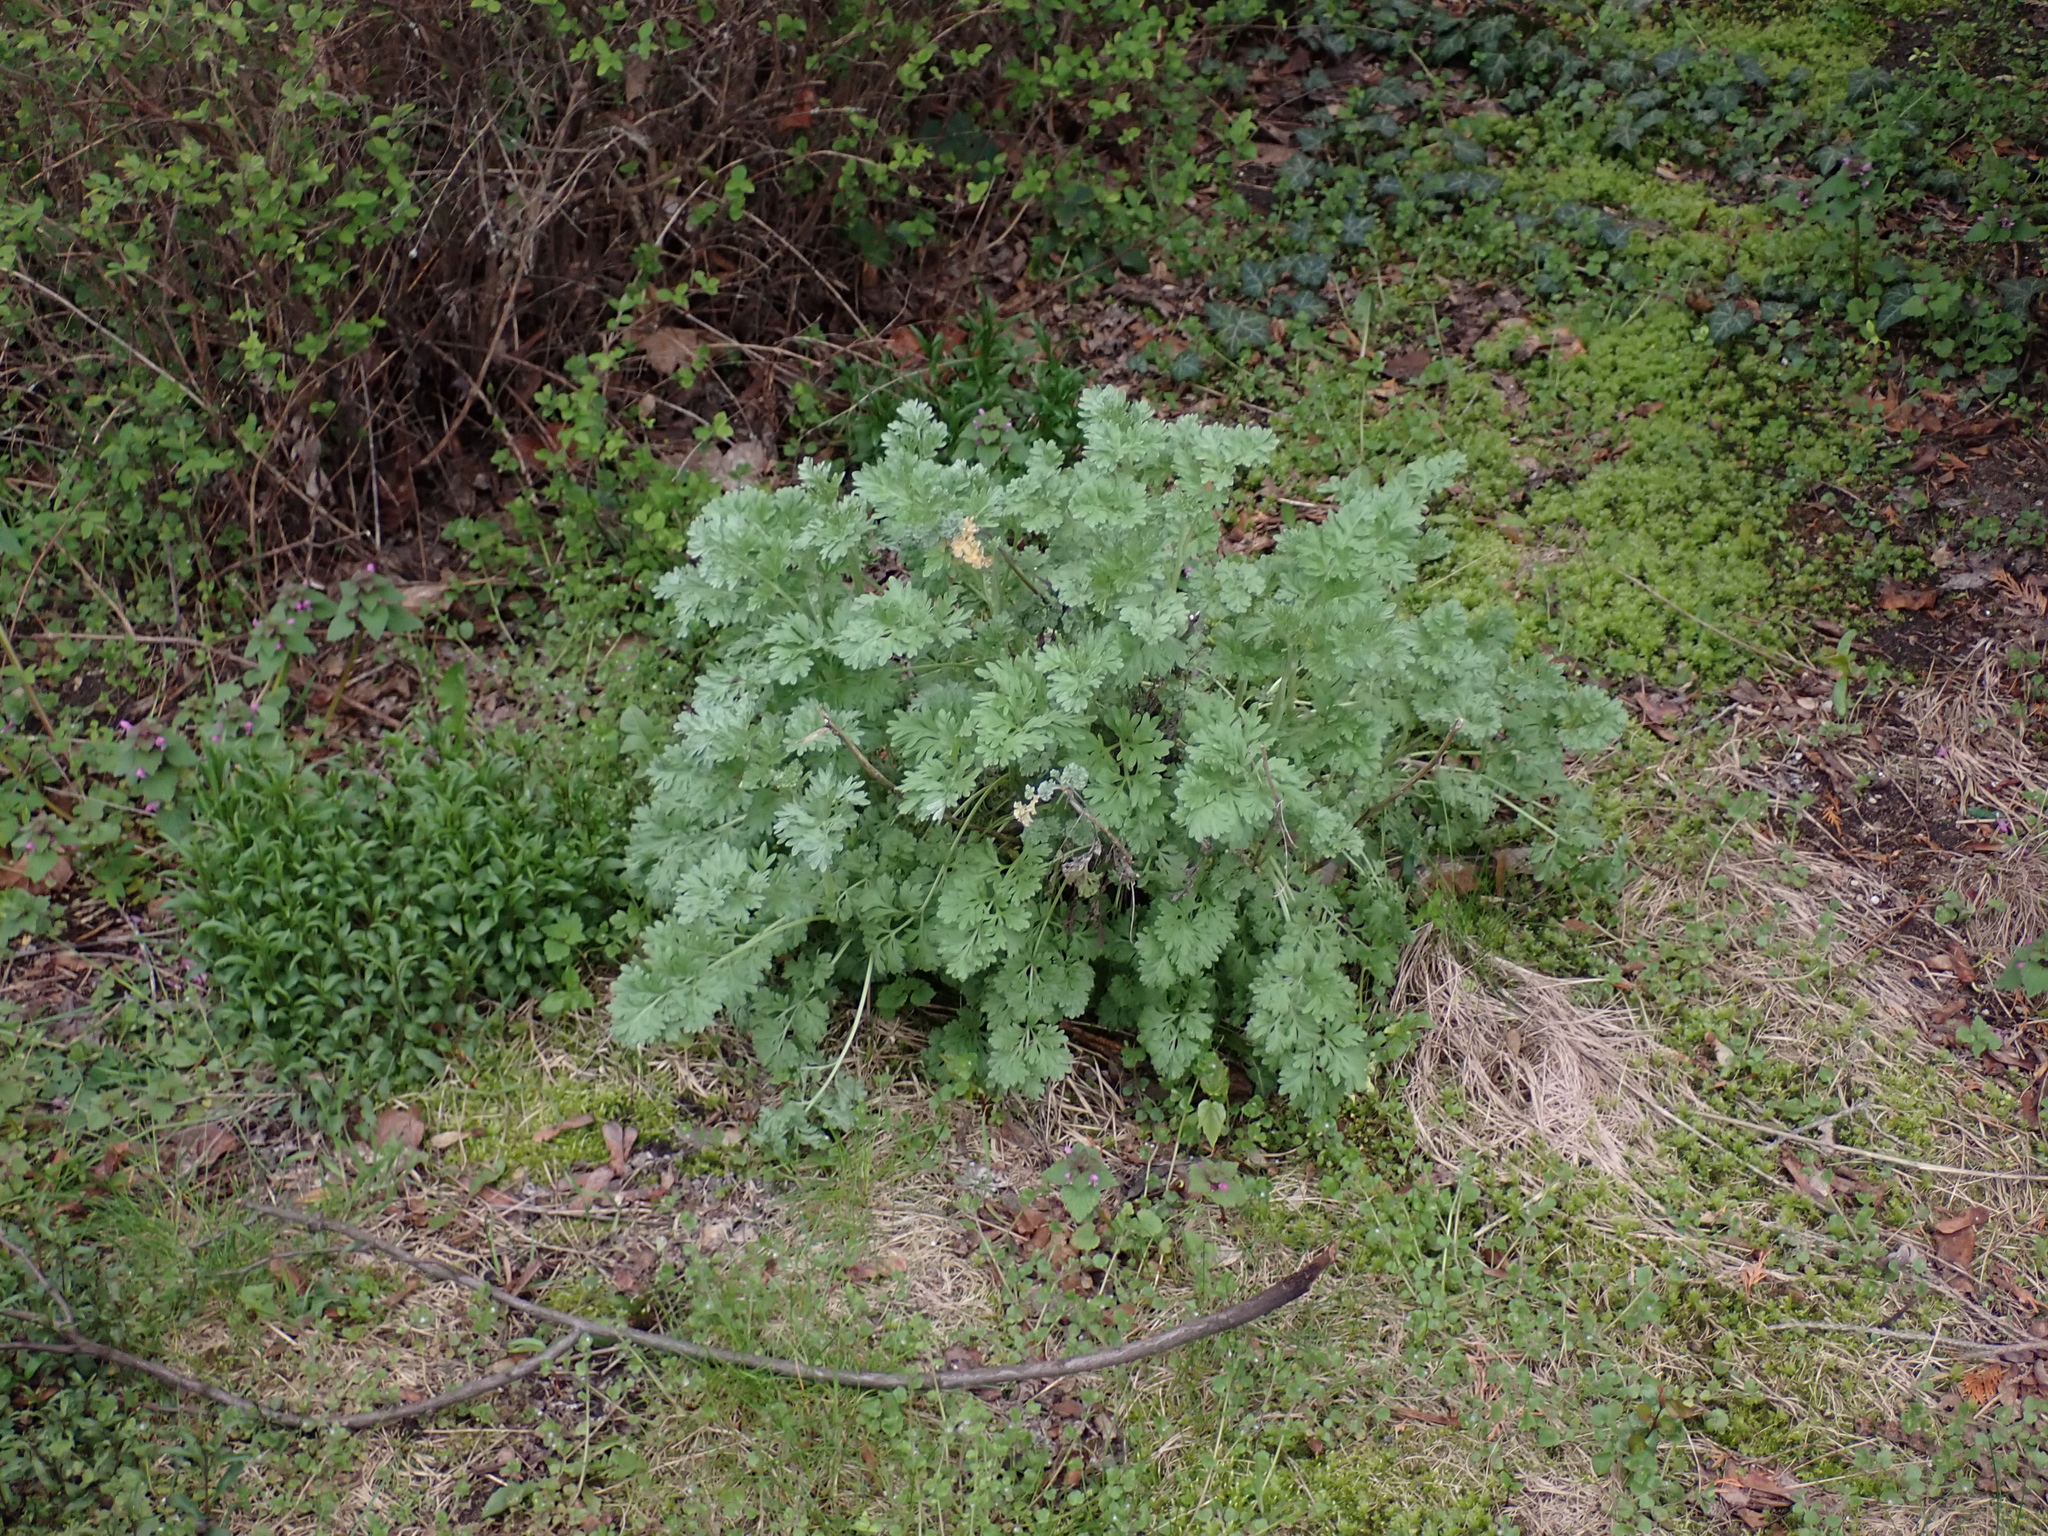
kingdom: Plantae
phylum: Tracheophyta
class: Magnoliopsida
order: Asterales
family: Asteraceae
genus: Artemisia
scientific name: Artemisia absinthium
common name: Wormwood
